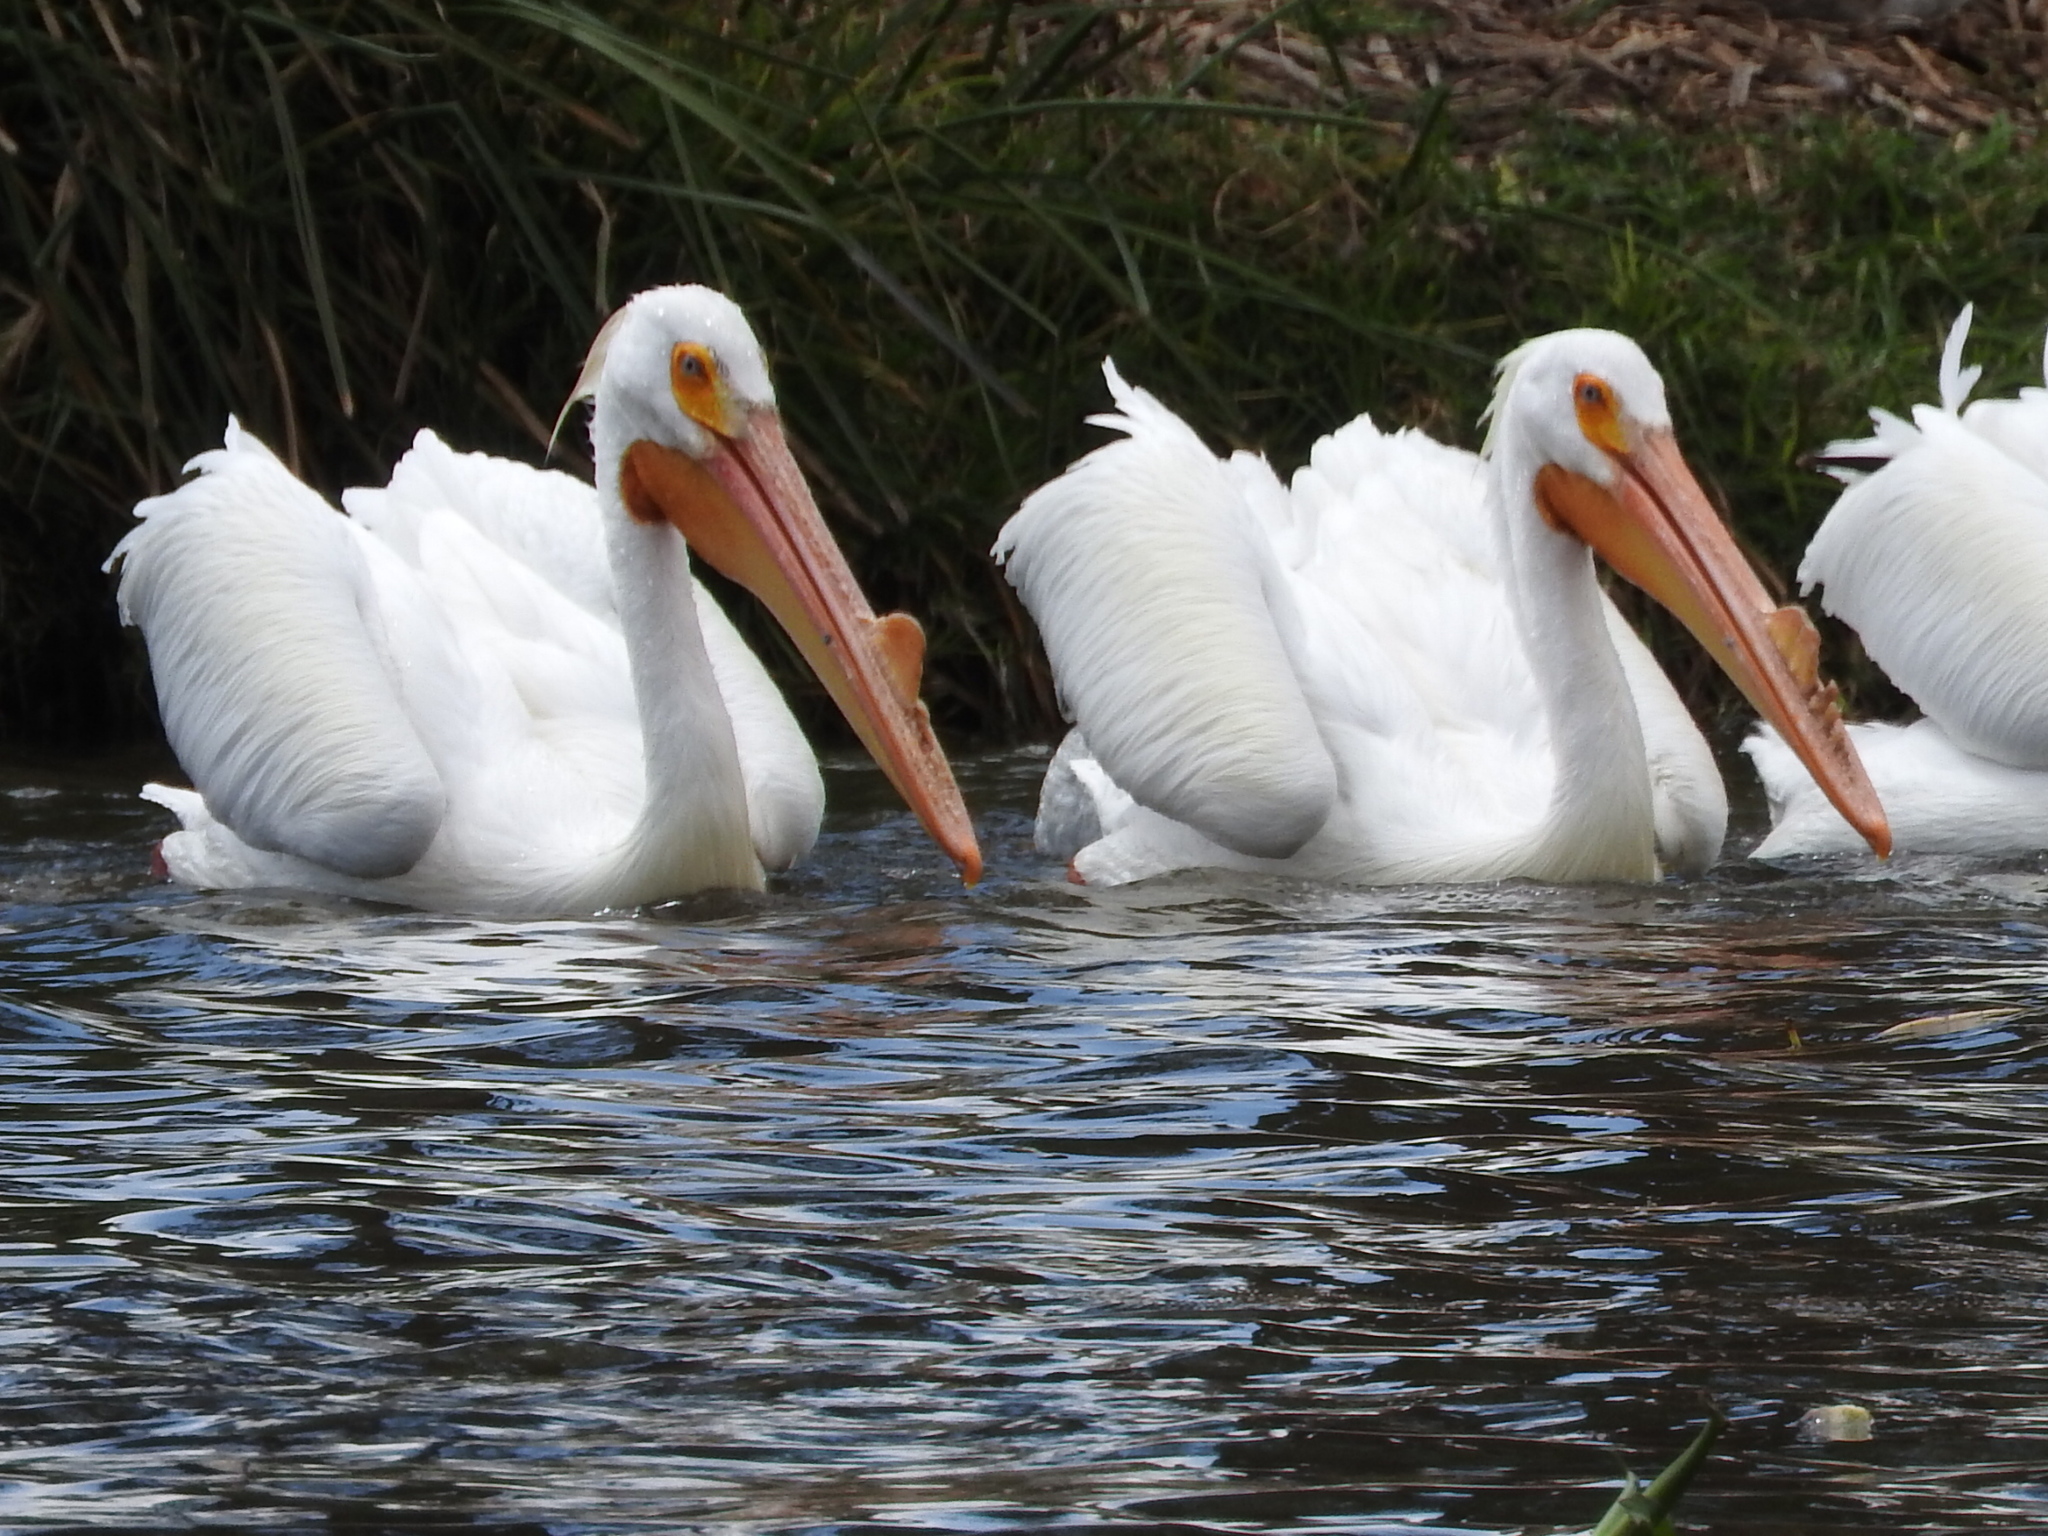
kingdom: Animalia
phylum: Chordata
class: Aves
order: Pelecaniformes
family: Pelecanidae
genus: Pelecanus
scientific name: Pelecanus erythrorhynchos
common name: American white pelican
